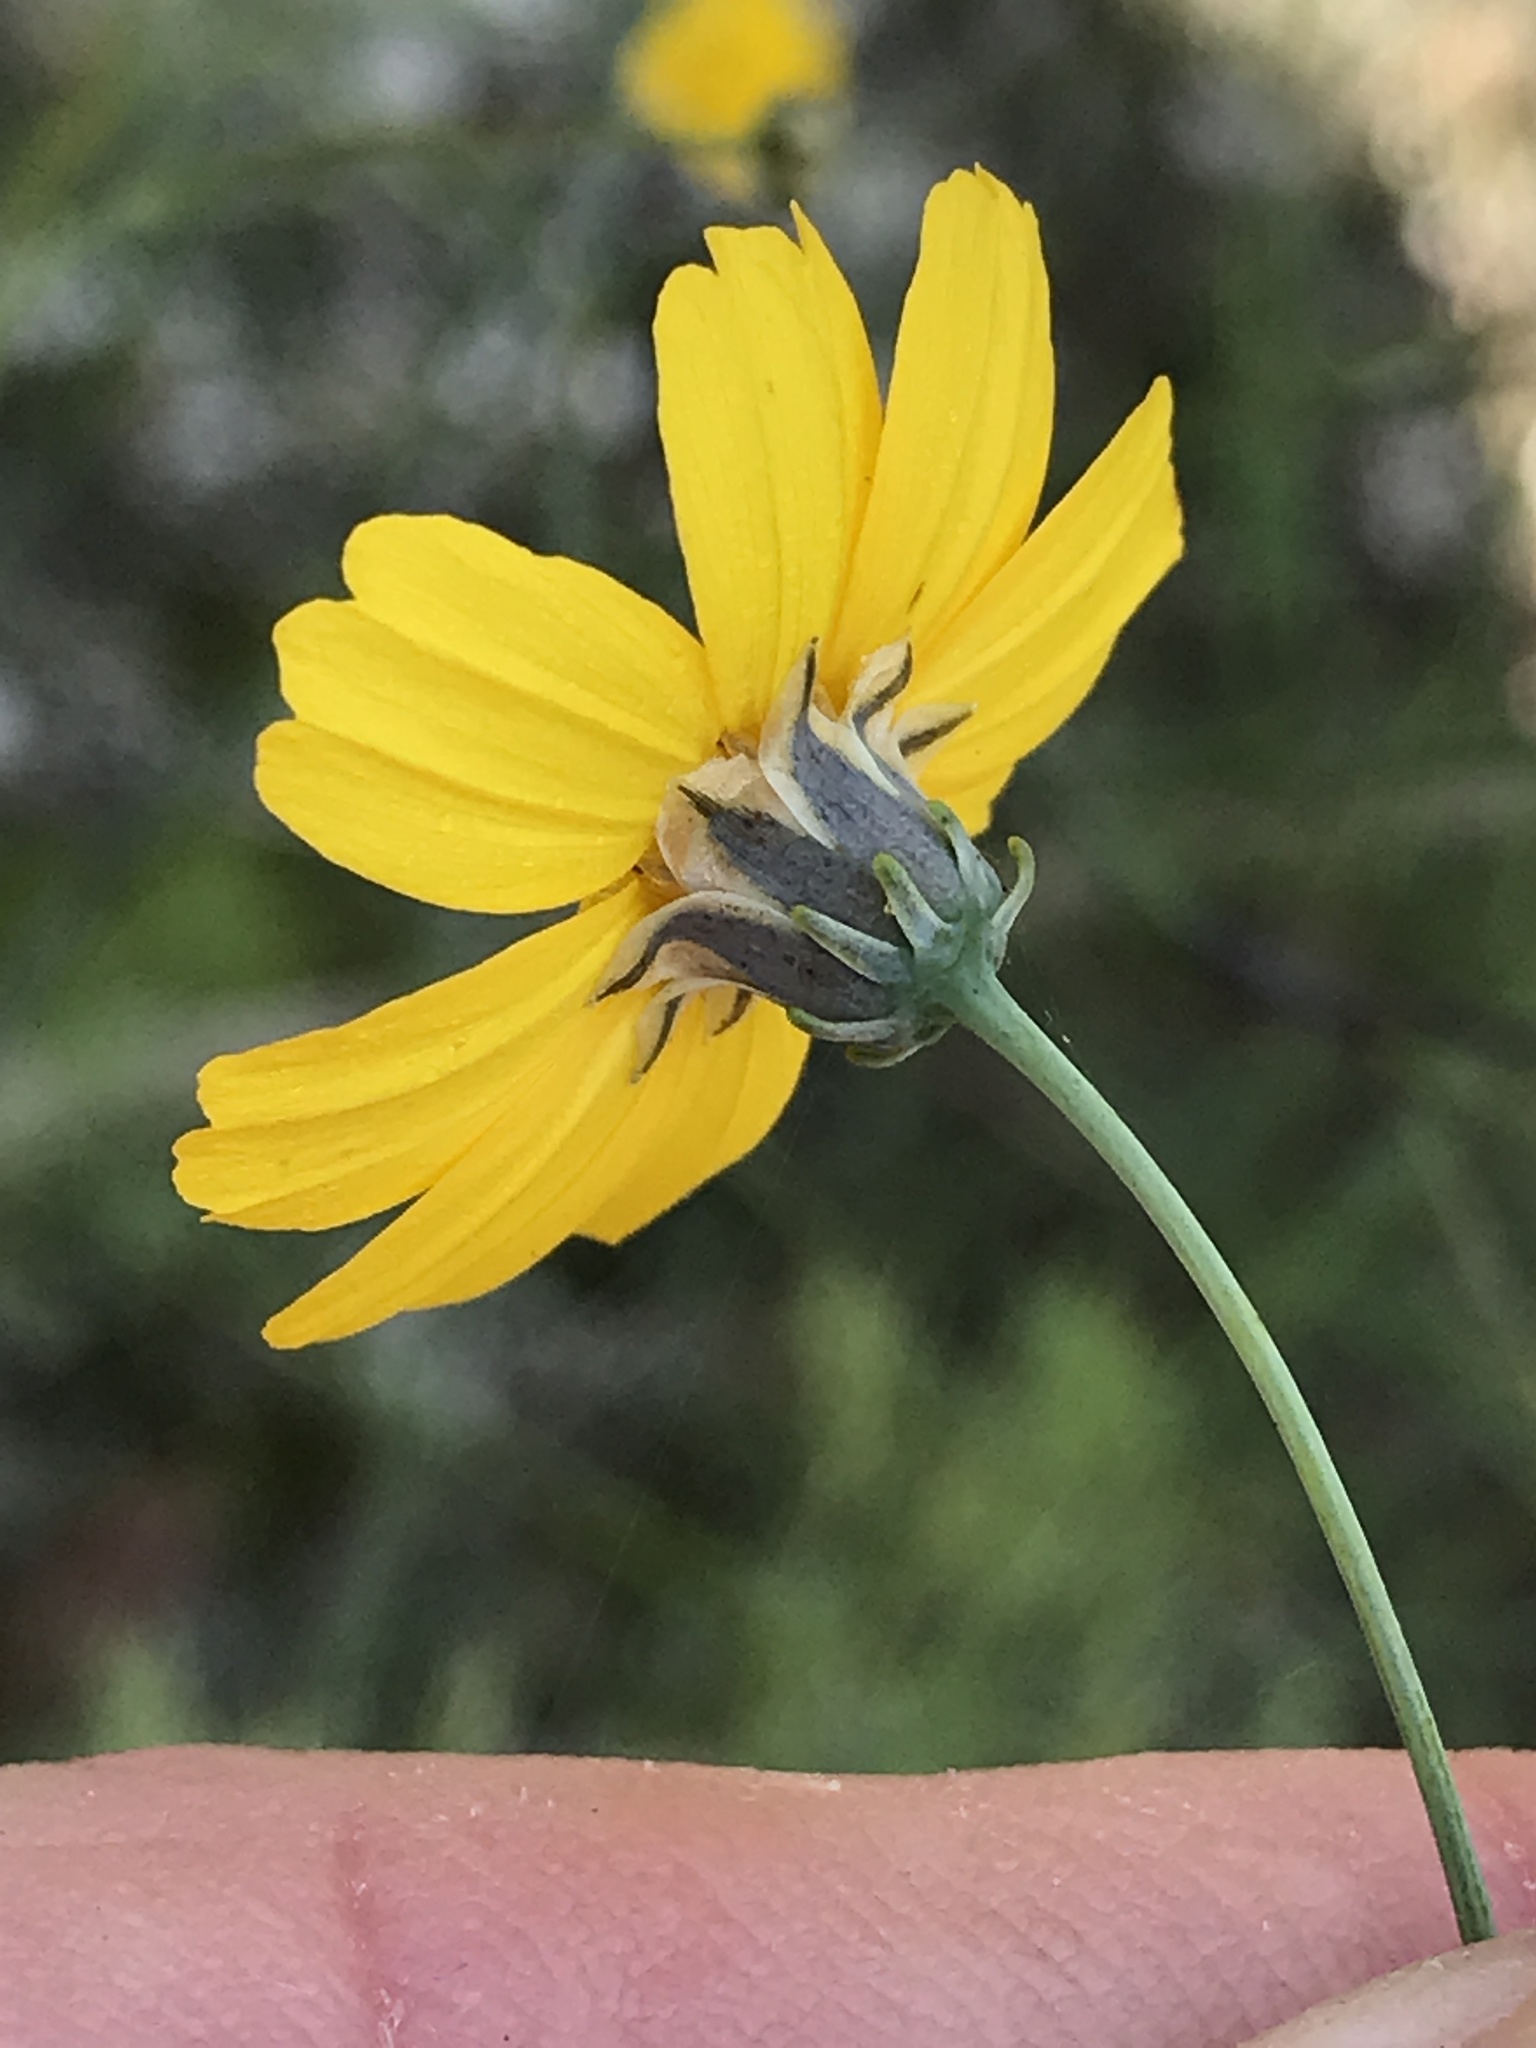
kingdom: Plantae
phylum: Tracheophyta
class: Magnoliopsida
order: Asterales
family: Asteraceae
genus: Thelesperma
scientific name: Thelesperma simplicifolium
